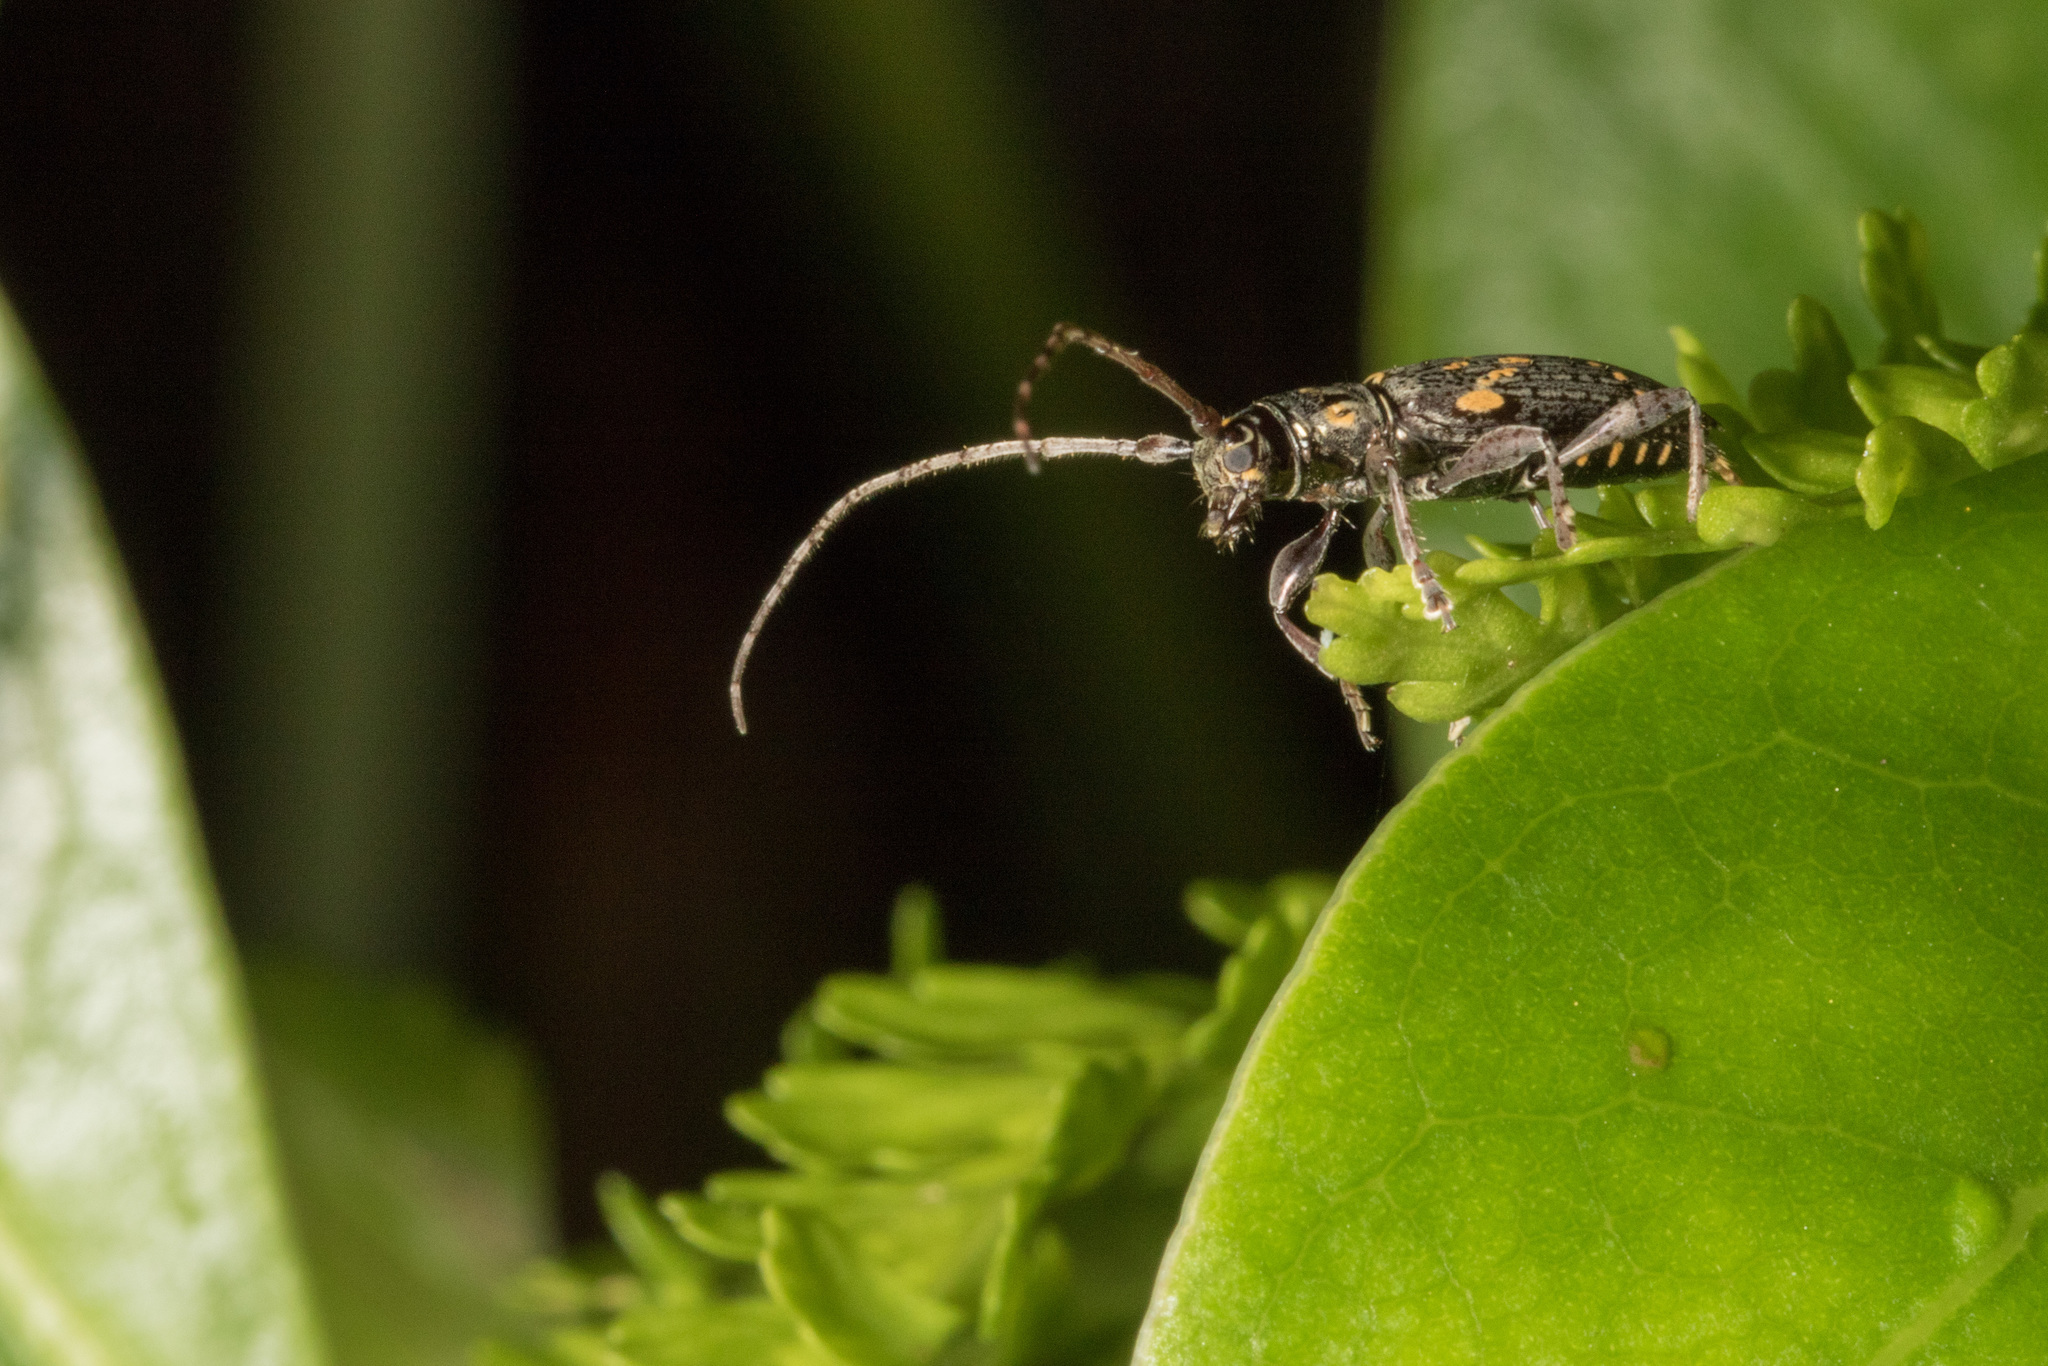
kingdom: Animalia
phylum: Arthropoda
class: Insecta
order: Coleoptera
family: Cerambycidae
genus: Xylotoles
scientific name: Xylotoles griseus
